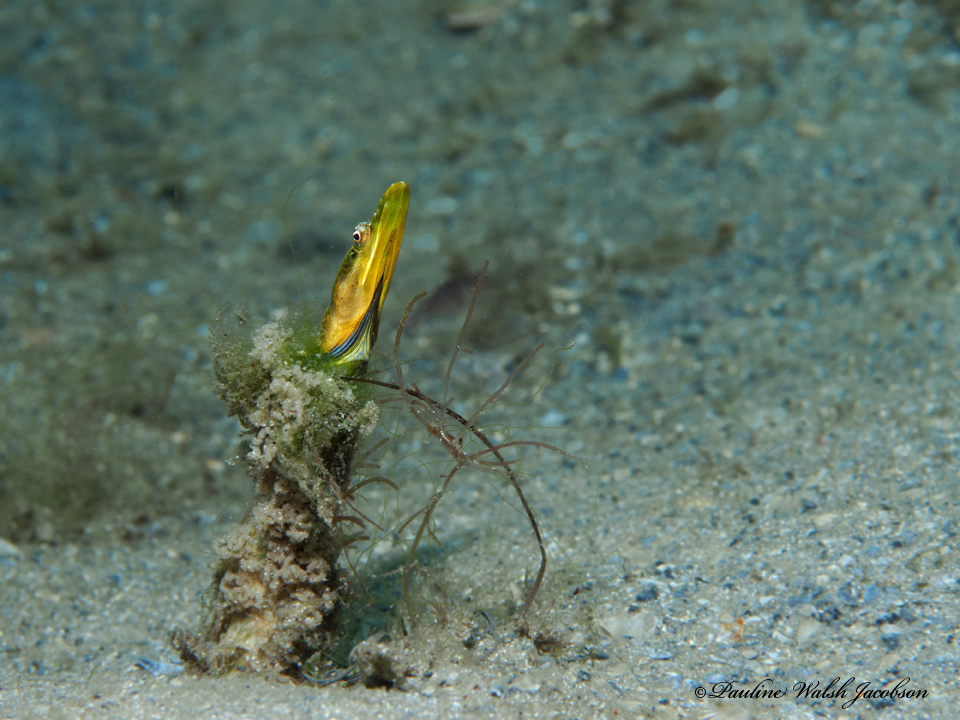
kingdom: Animalia
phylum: Chordata
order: Perciformes
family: Chaenopsidae
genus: Chaenopsis
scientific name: Chaenopsis ocellata
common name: Bluethroat pikeblenny
